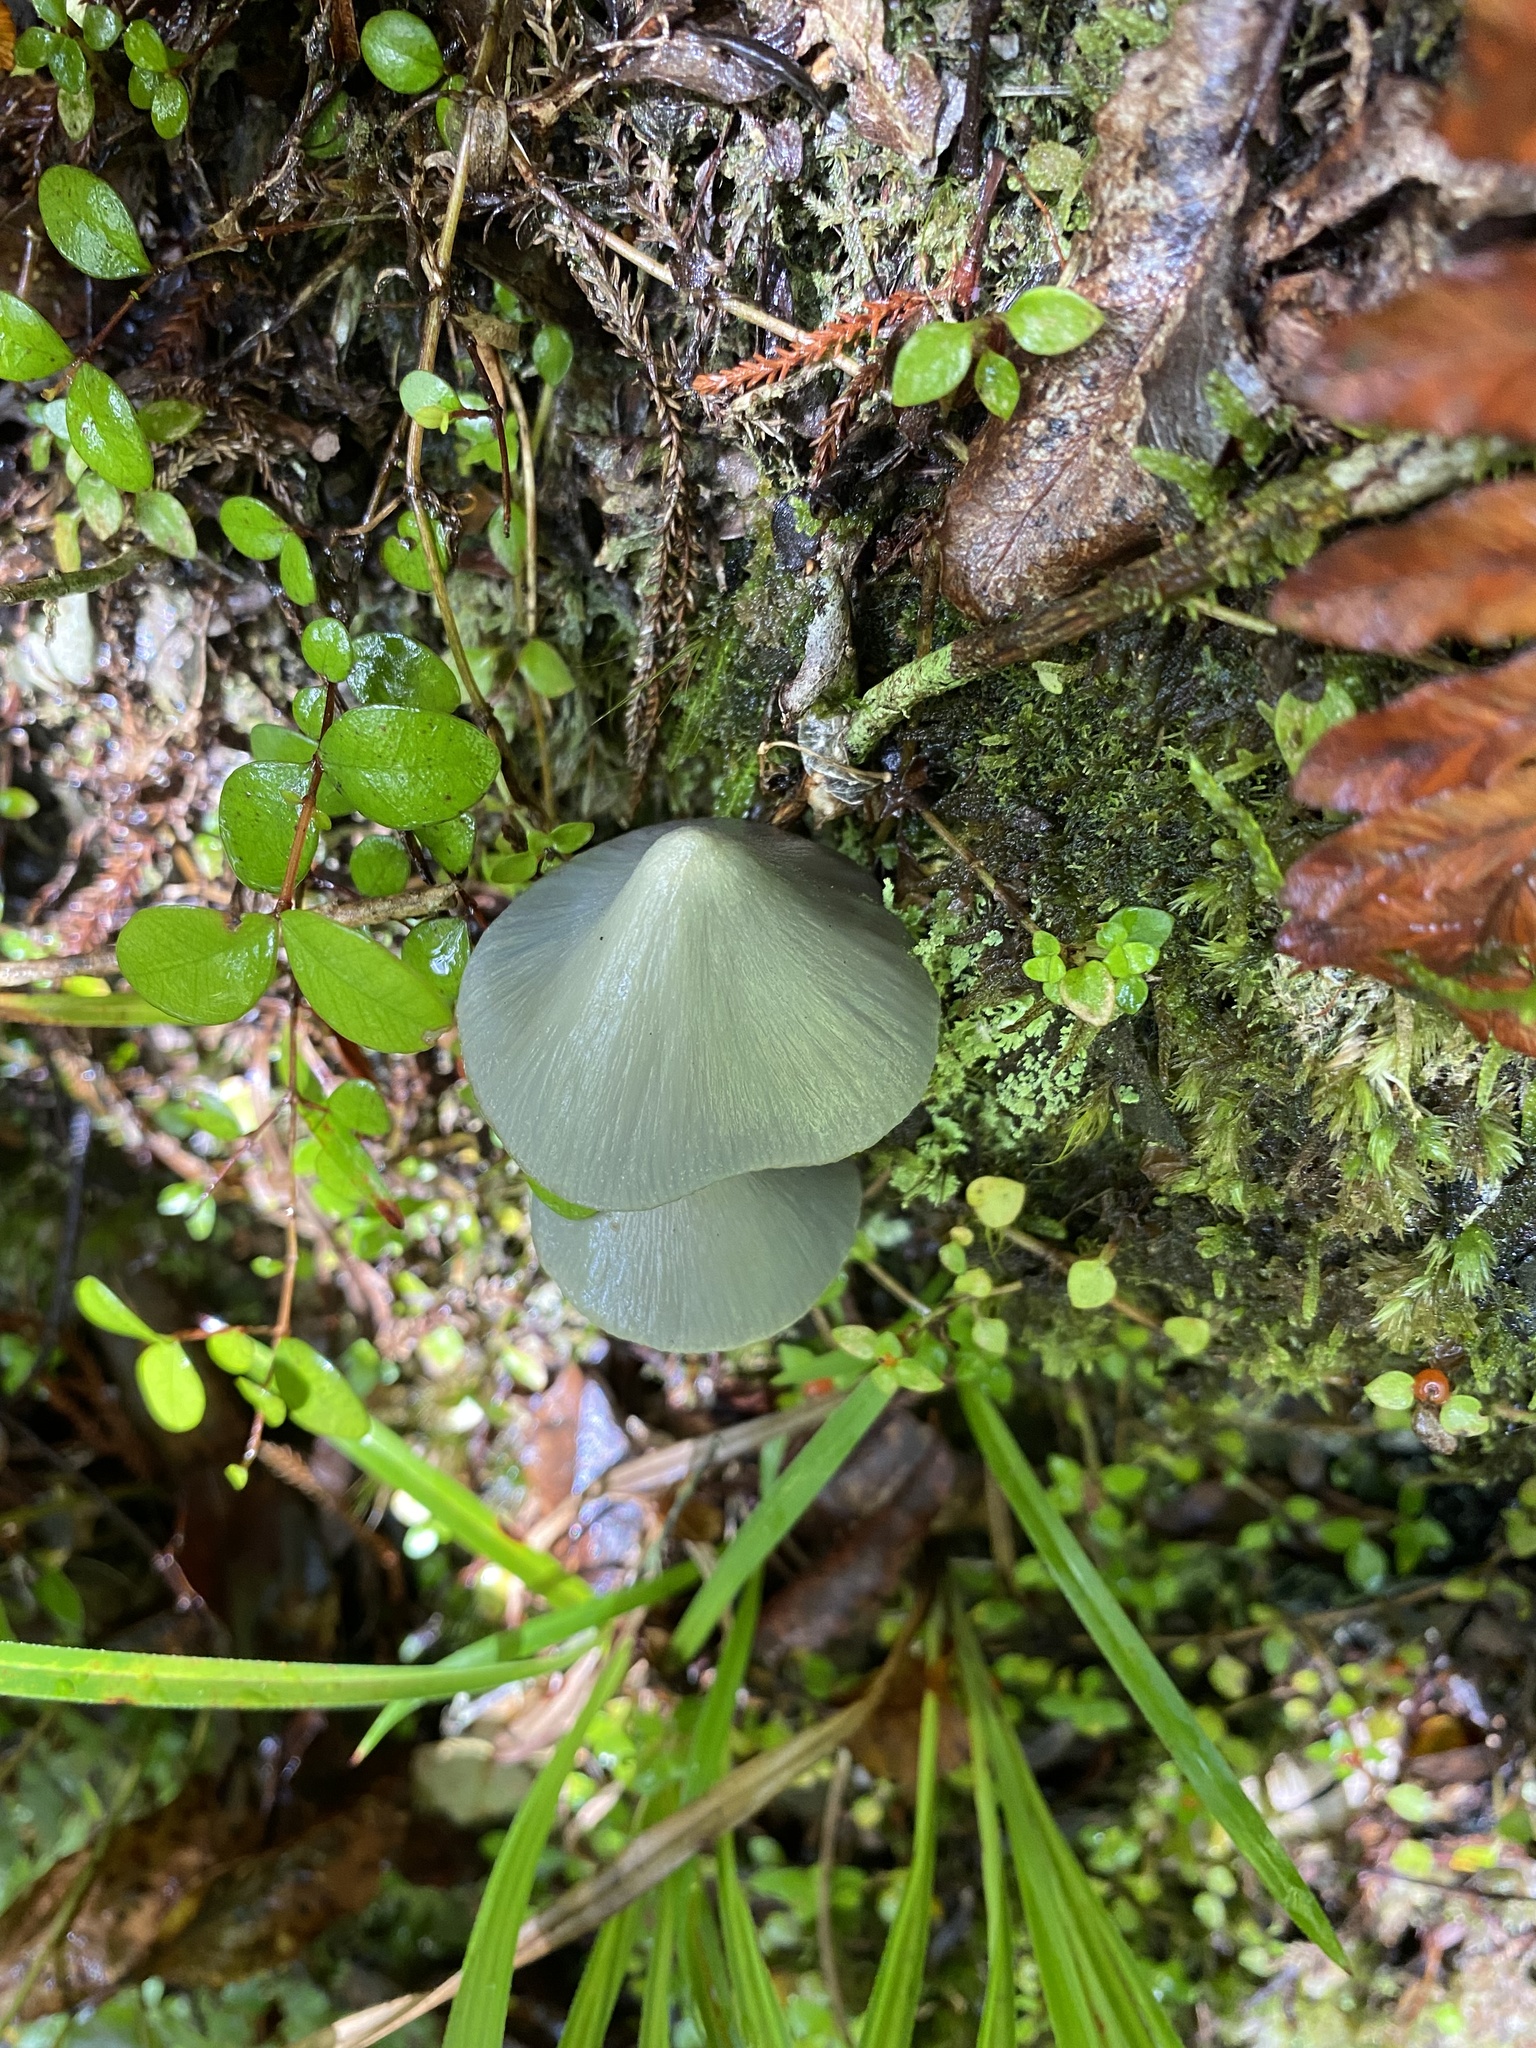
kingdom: Fungi
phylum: Basidiomycota
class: Agaricomycetes
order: Agaricales
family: Entolomataceae
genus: Entoloma
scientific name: Entoloma hochstetteri
